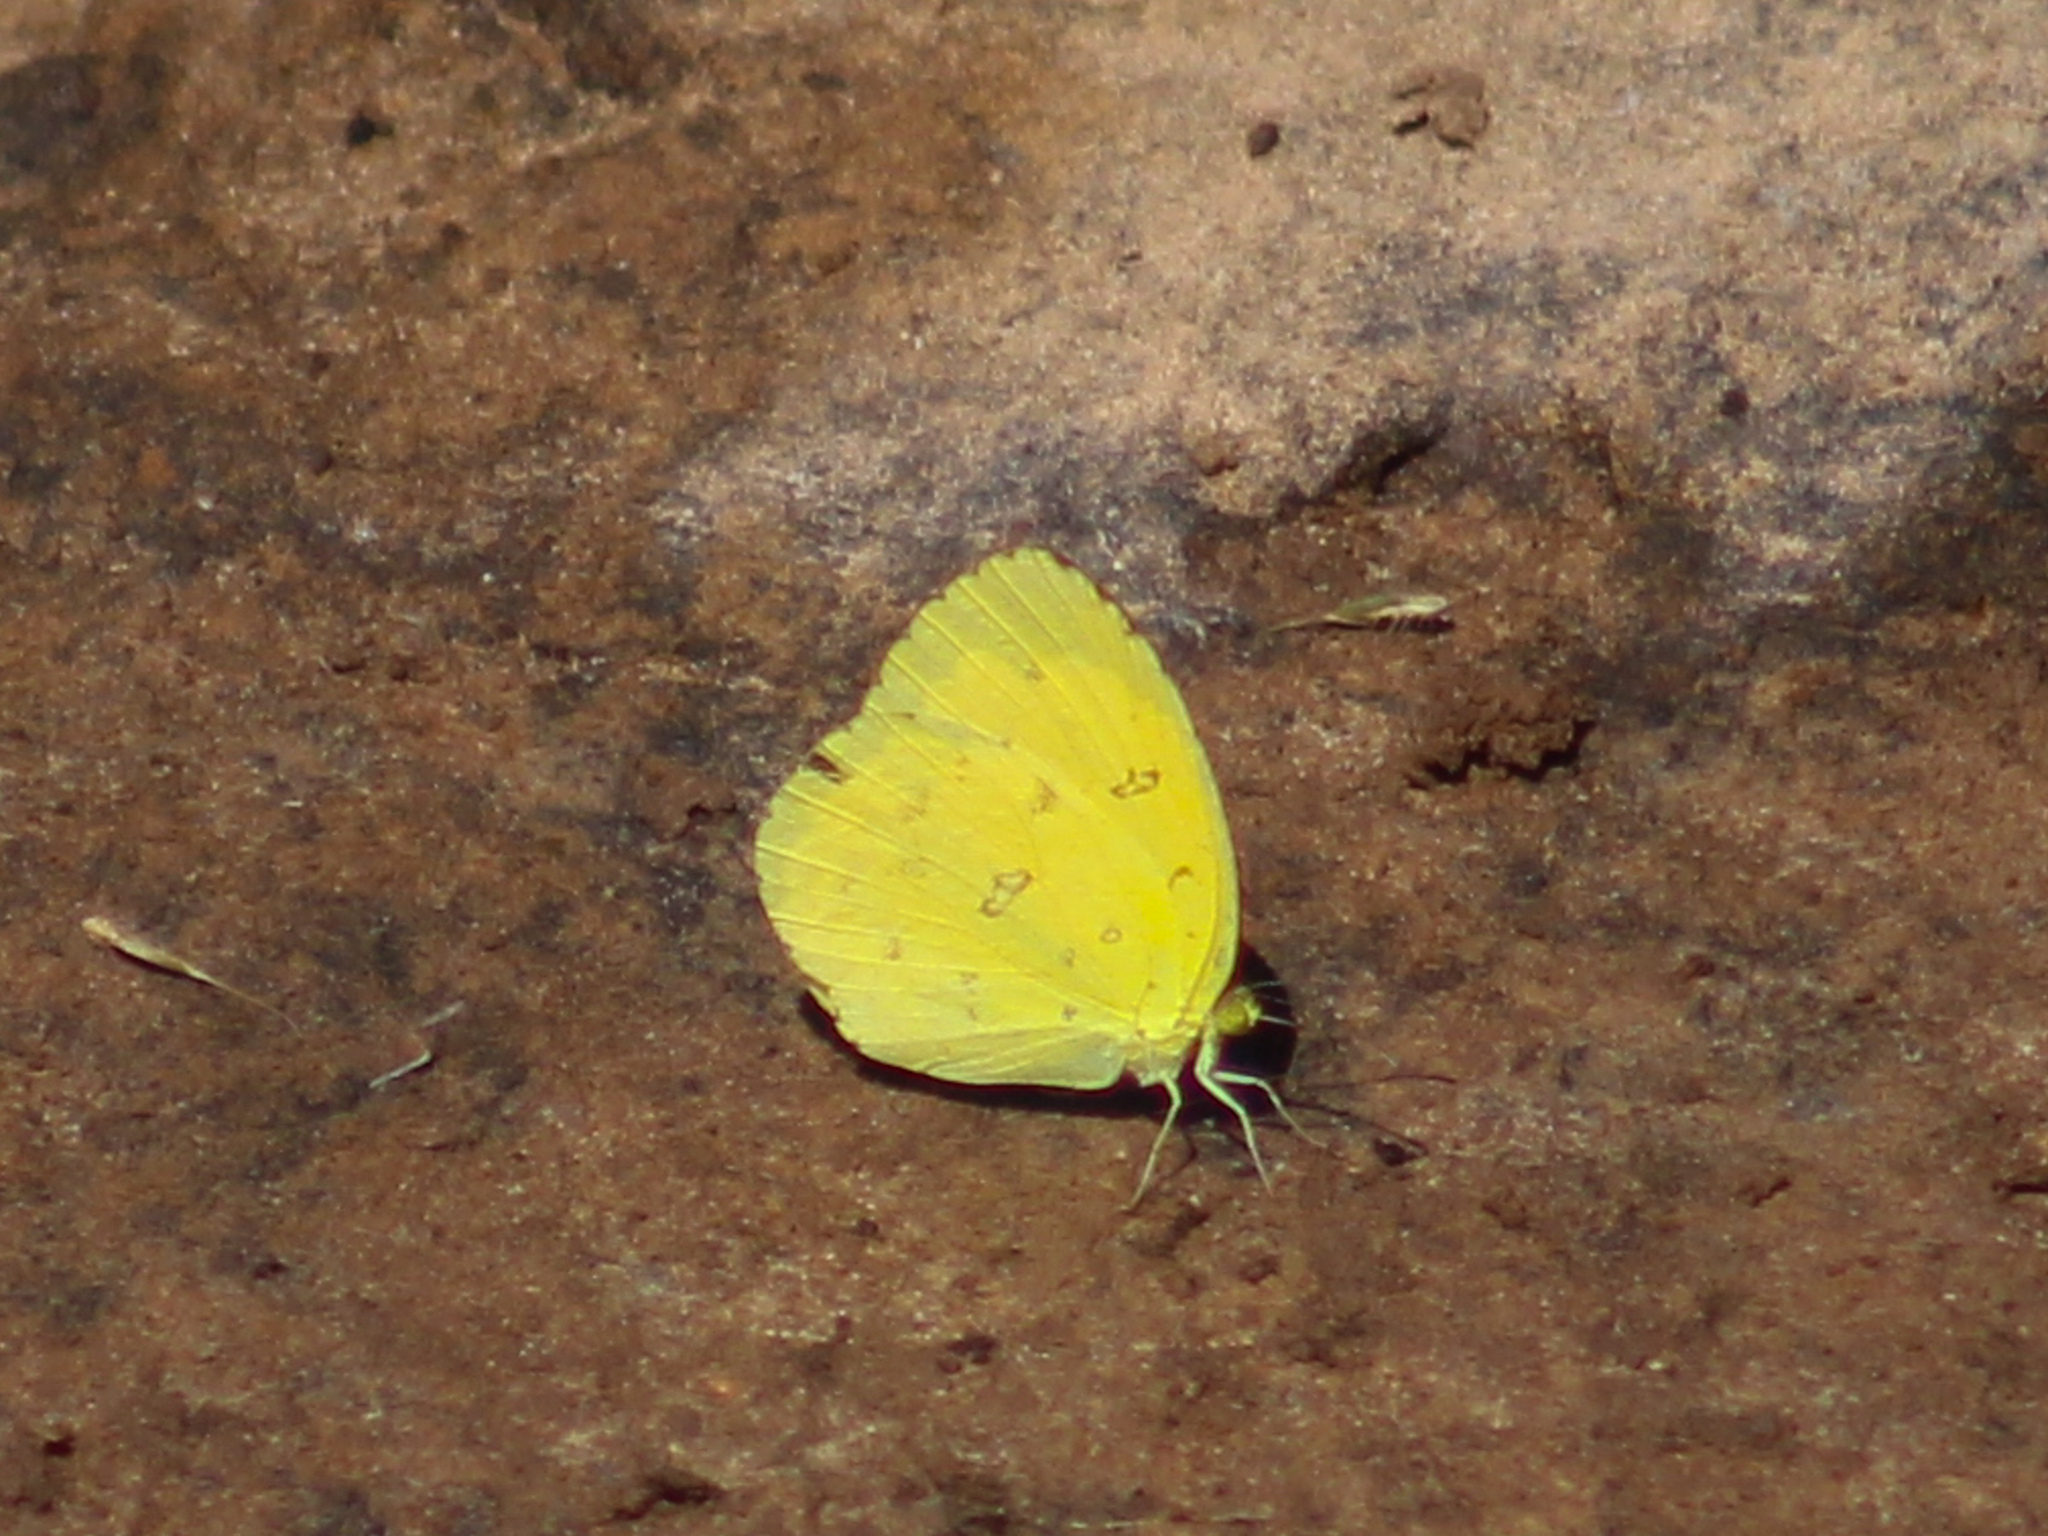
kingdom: Animalia
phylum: Arthropoda
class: Insecta
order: Lepidoptera
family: Pieridae
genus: Eurema
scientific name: Eurema hecabe
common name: Pale grass yellow
